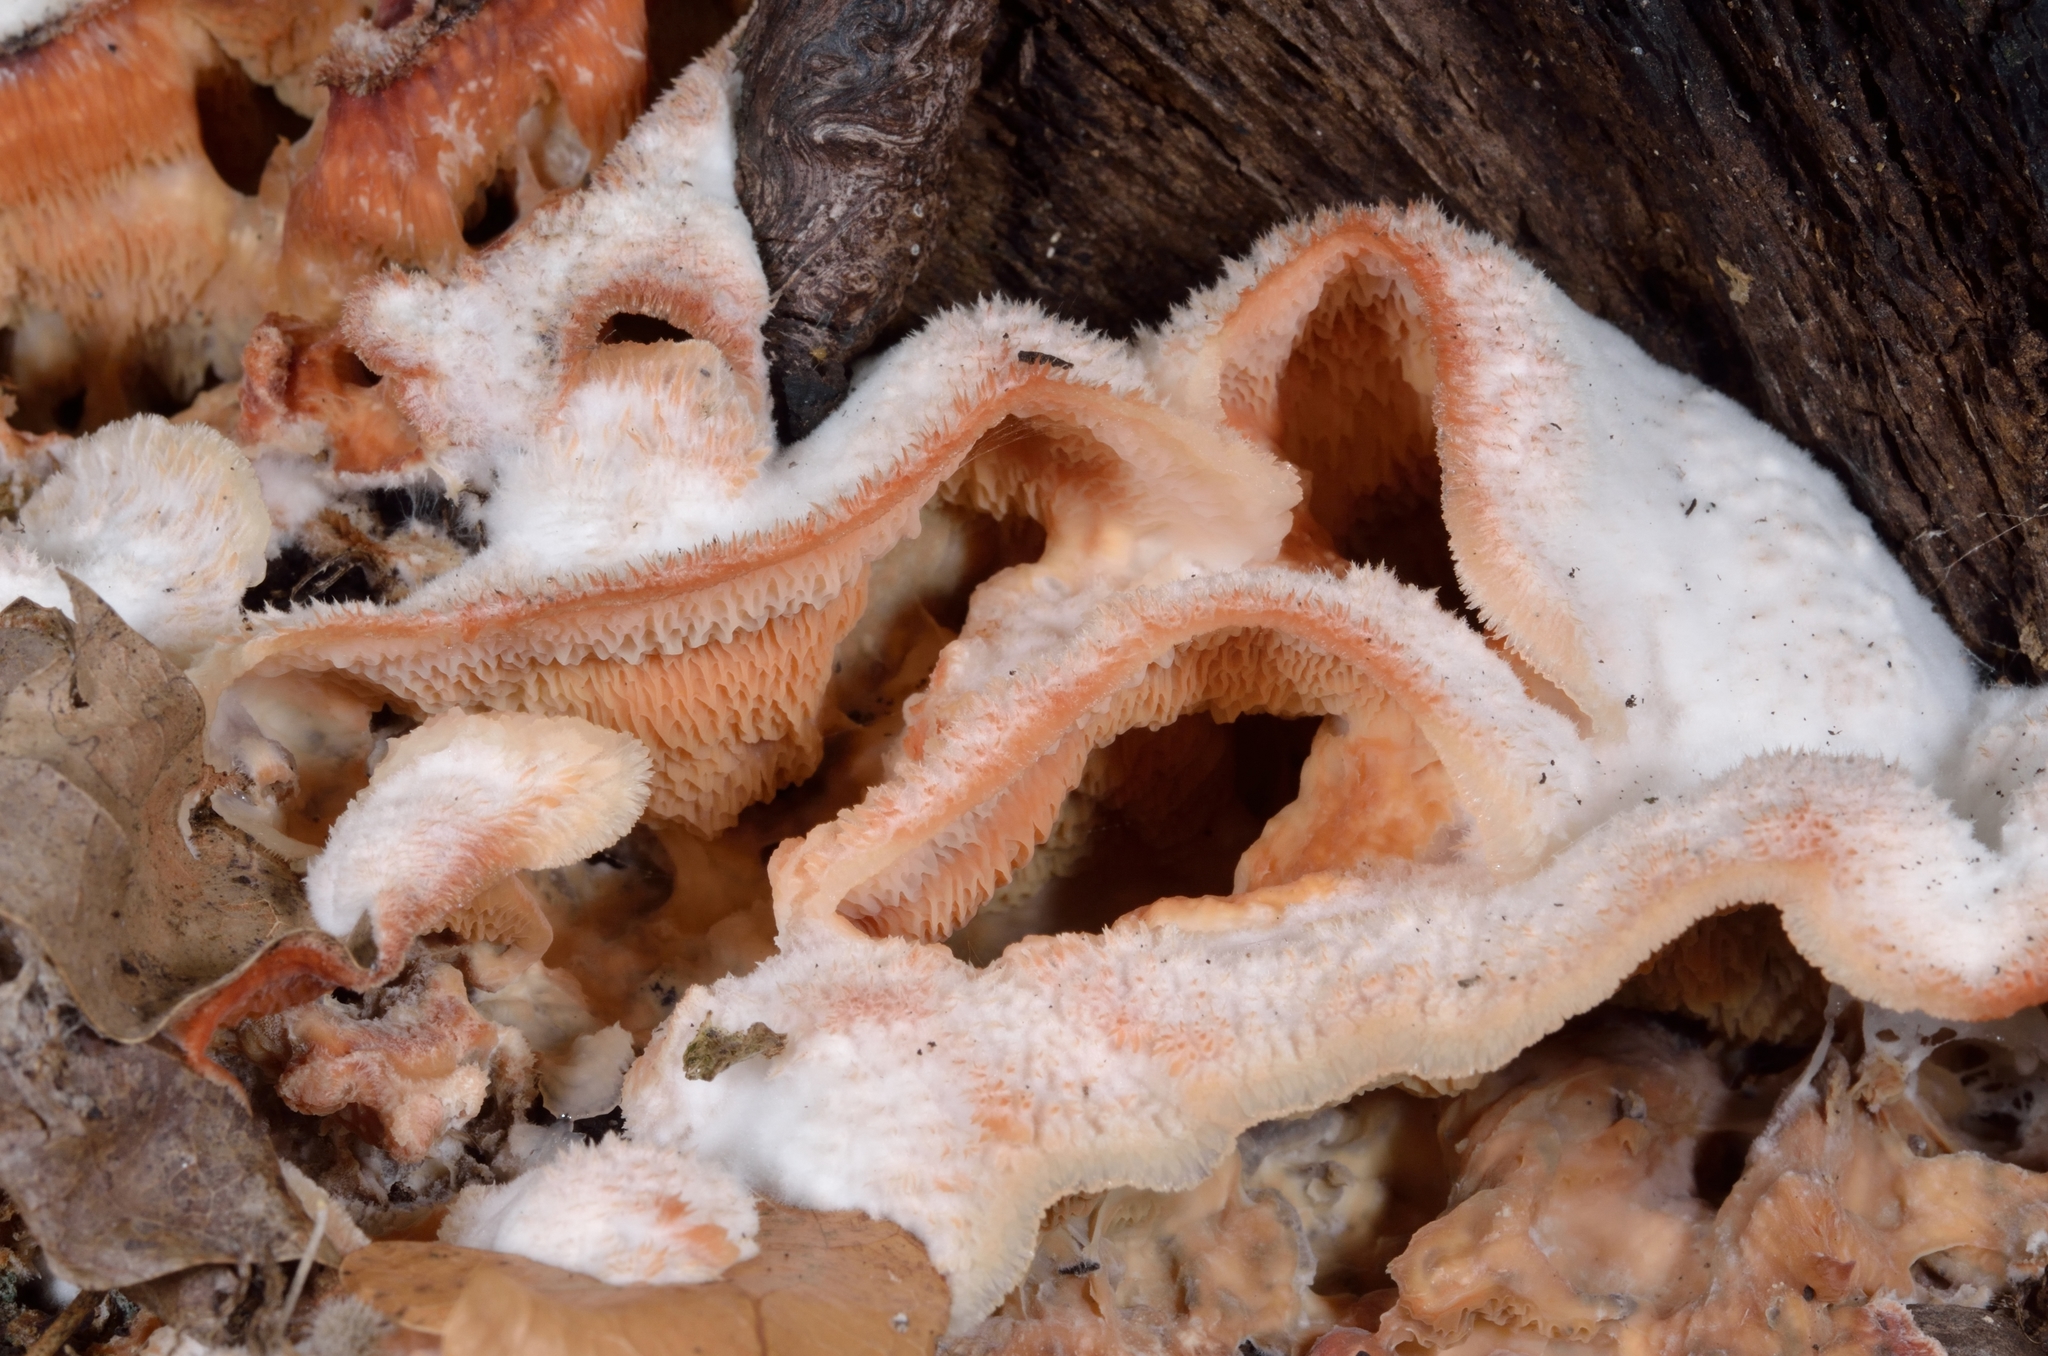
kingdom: Fungi
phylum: Basidiomycota
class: Agaricomycetes
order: Polyporales
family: Meruliaceae
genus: Phlebia
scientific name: Phlebia tremellosa
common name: Jelly rot
